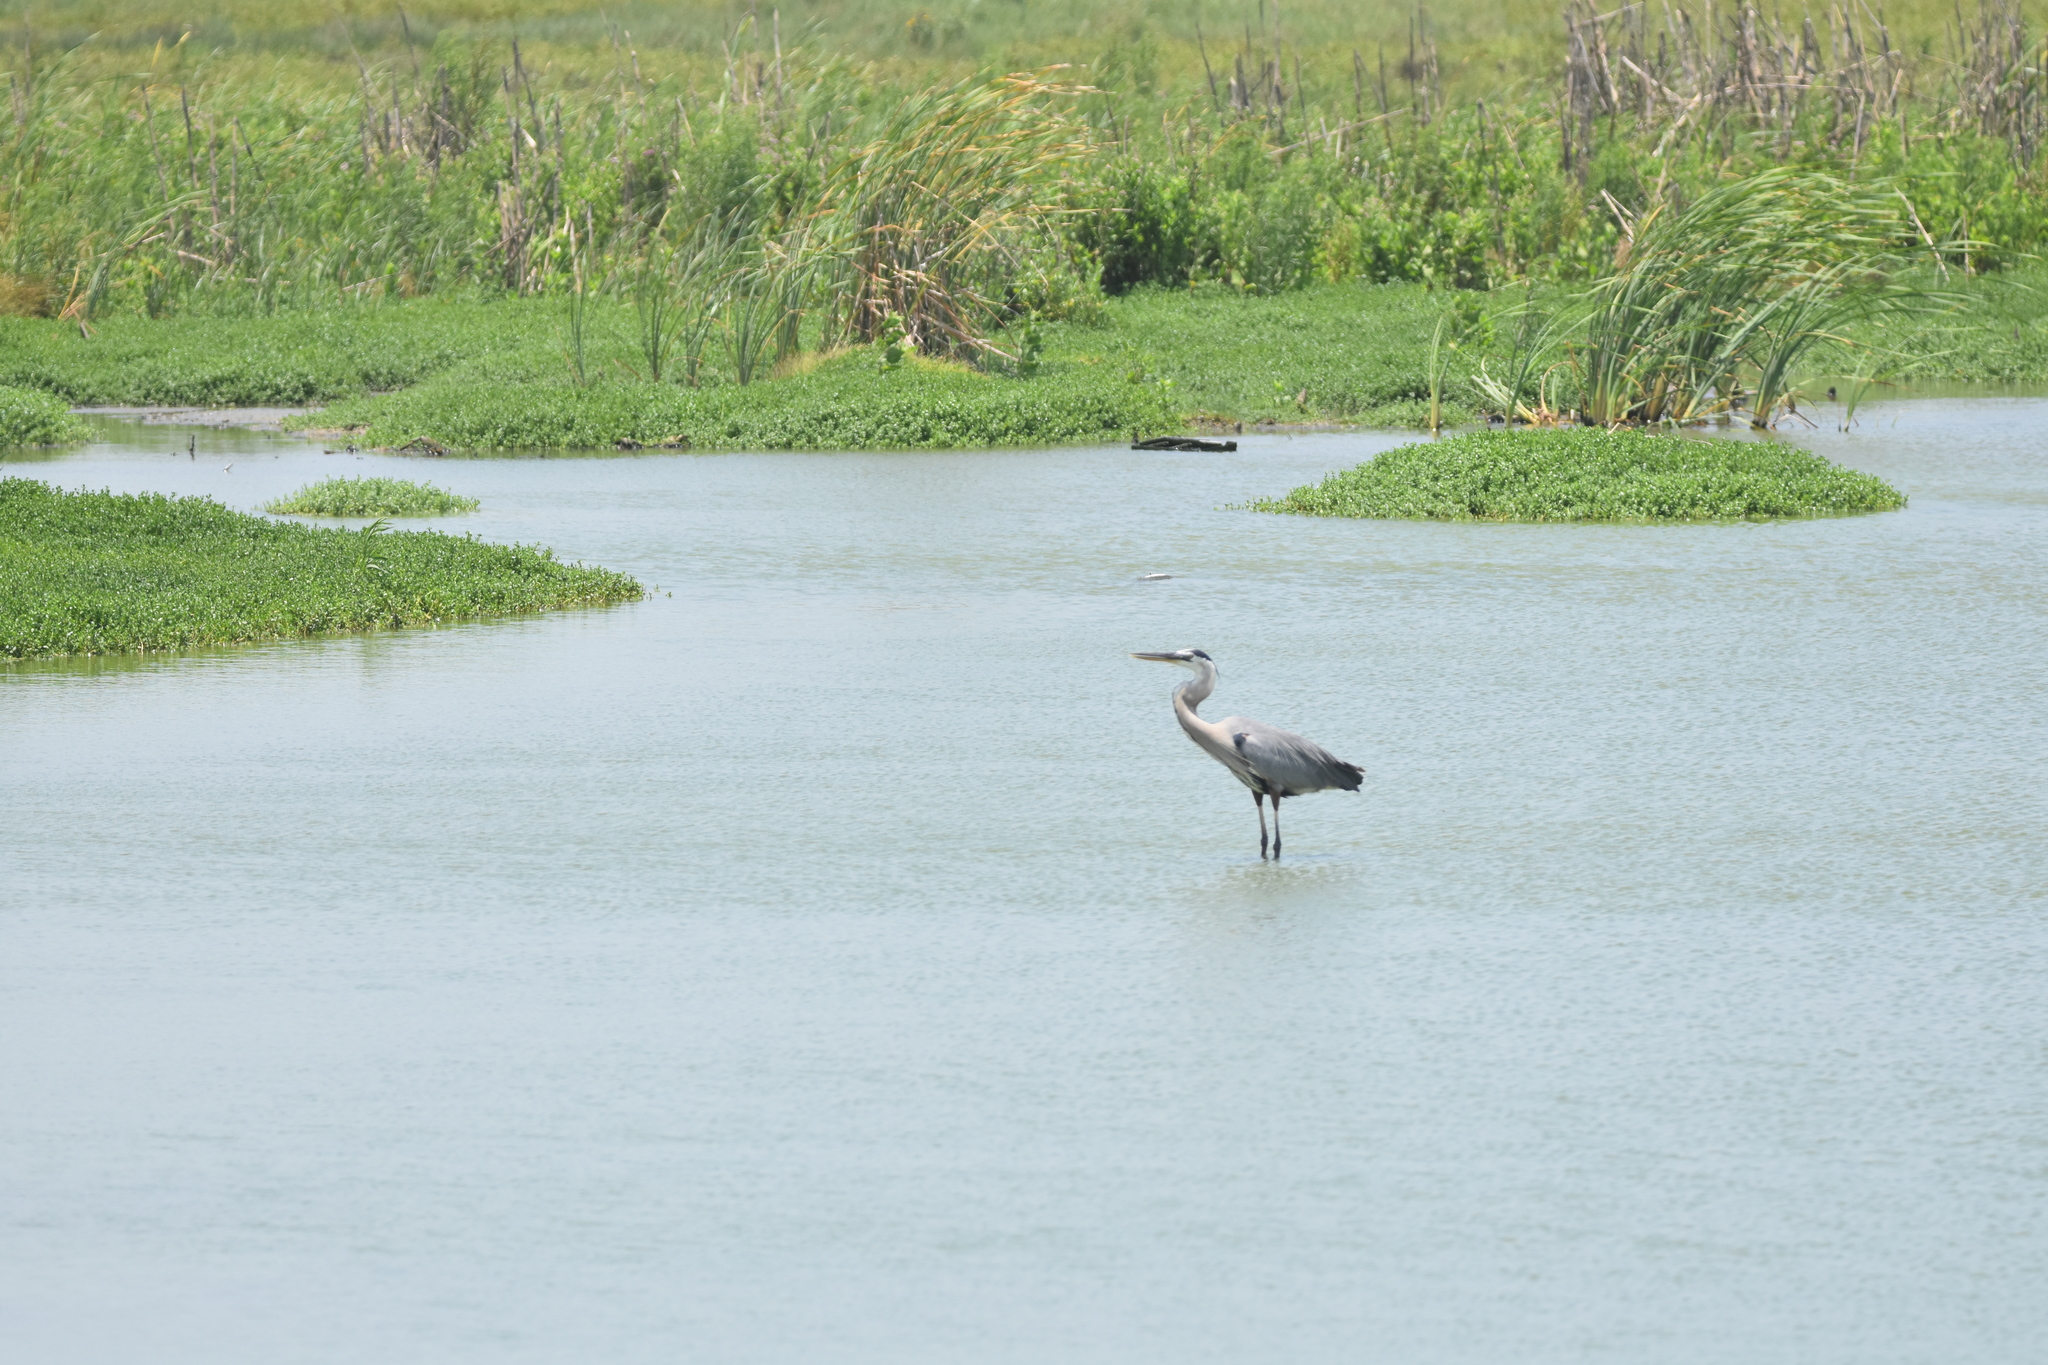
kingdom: Animalia
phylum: Chordata
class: Aves
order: Pelecaniformes
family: Ardeidae
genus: Ardea
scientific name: Ardea herodias
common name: Great blue heron
